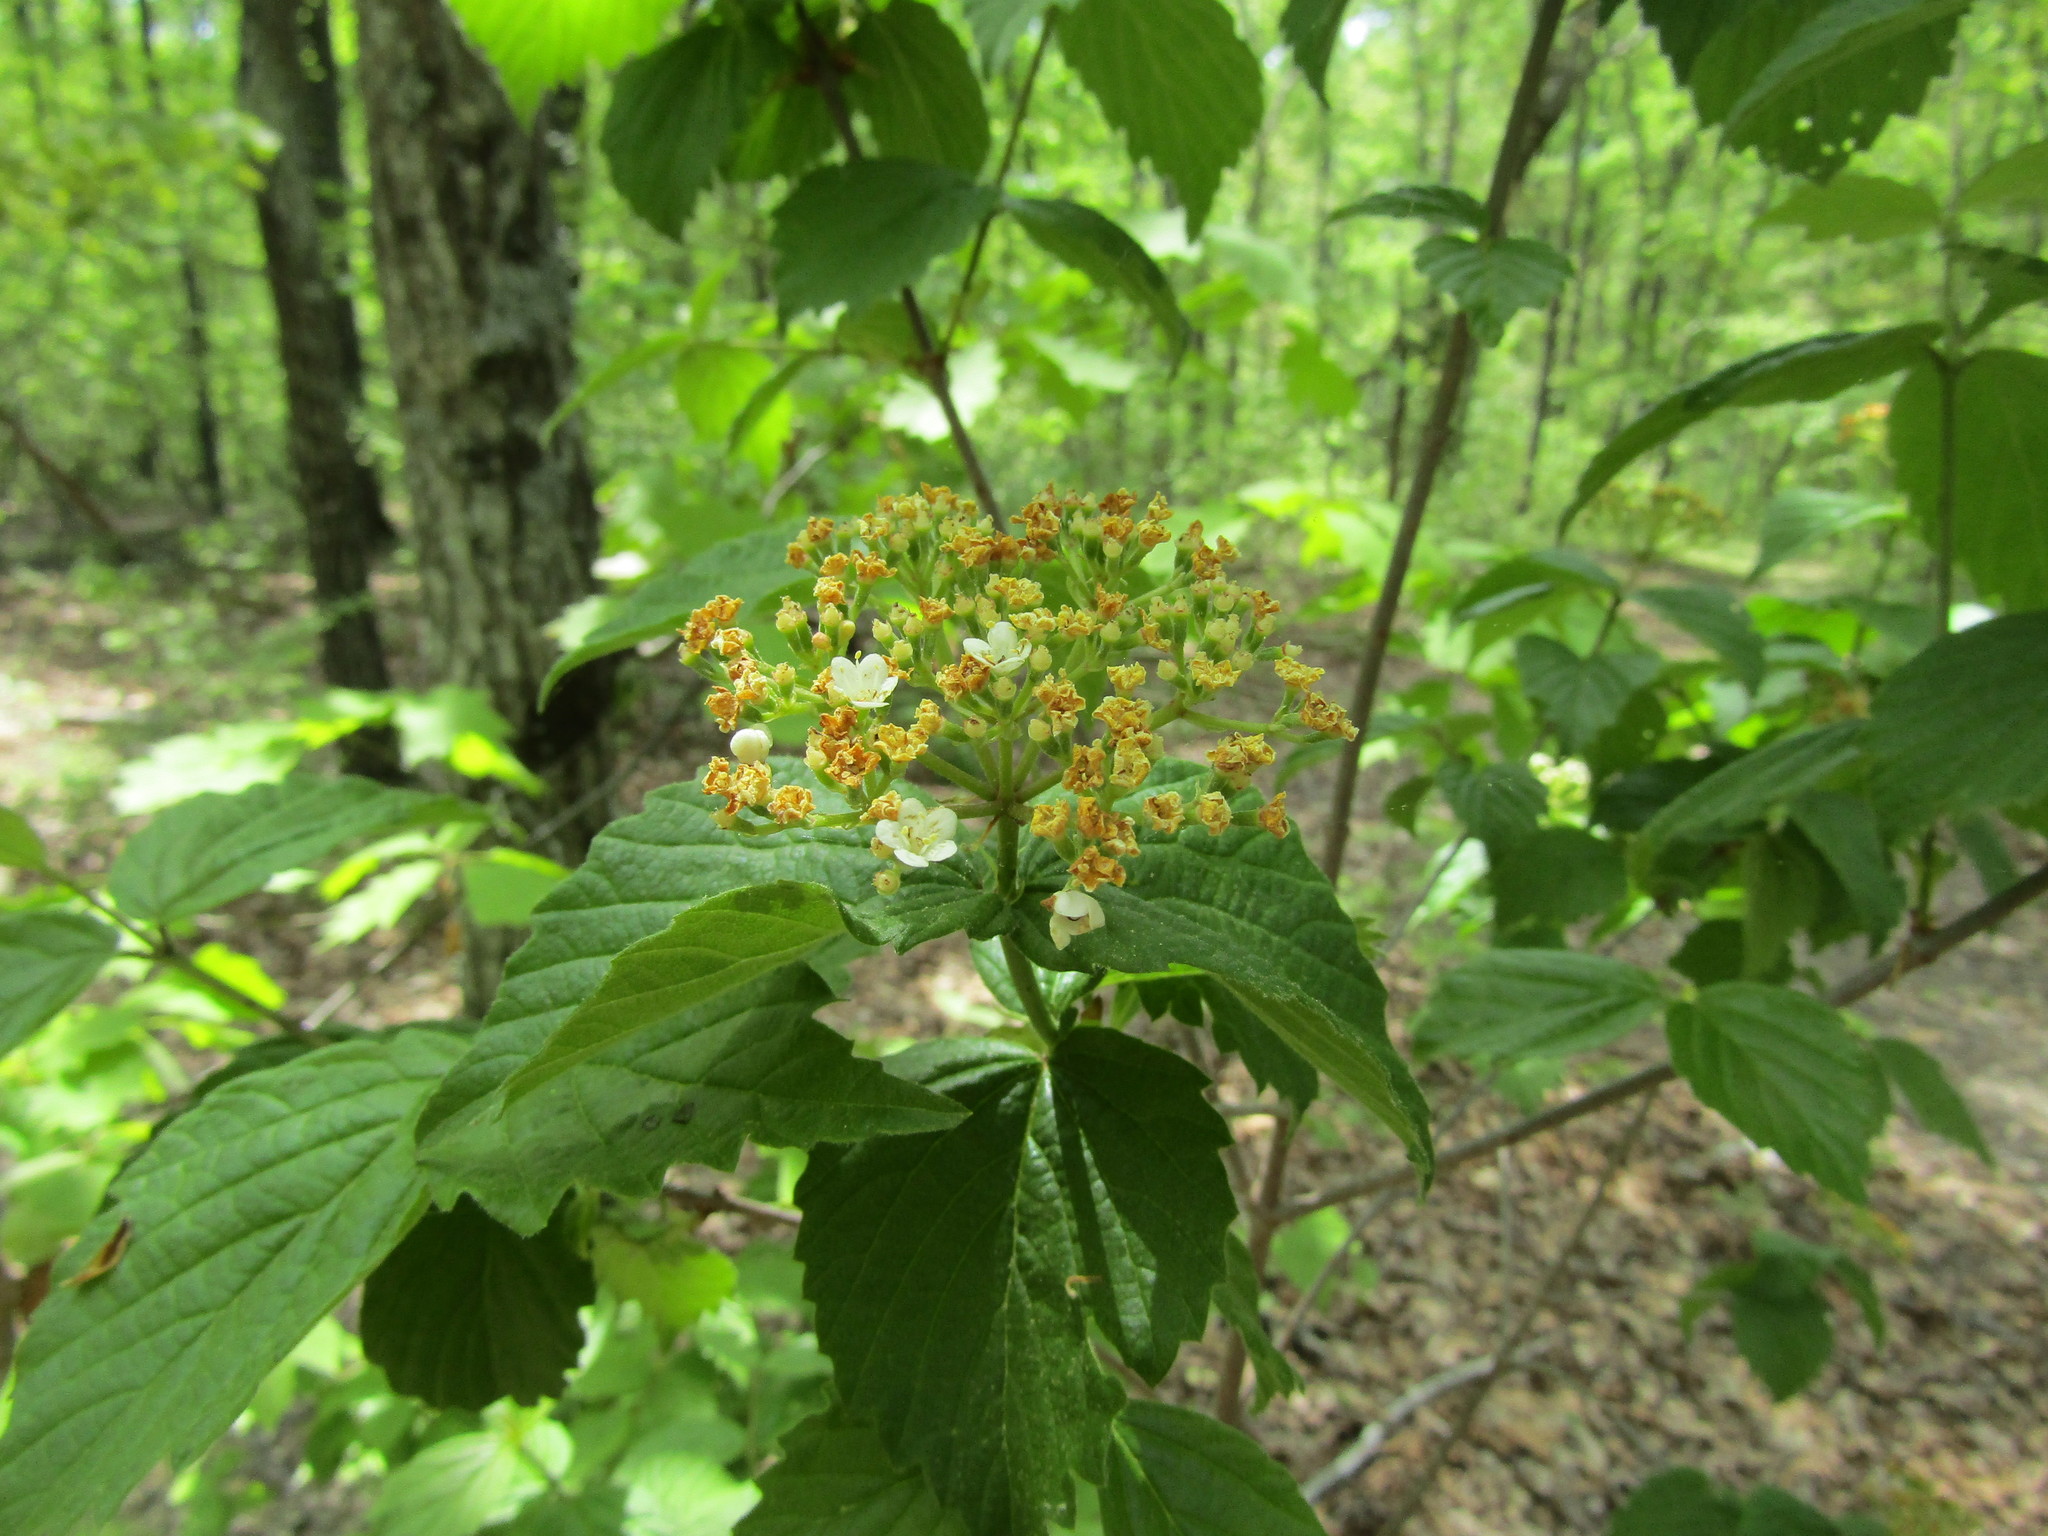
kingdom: Plantae
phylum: Tracheophyta
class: Magnoliopsida
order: Dipsacales
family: Viburnaceae
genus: Viburnum
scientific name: Viburnum rafinesqueanum
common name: Downy arrow-wood
